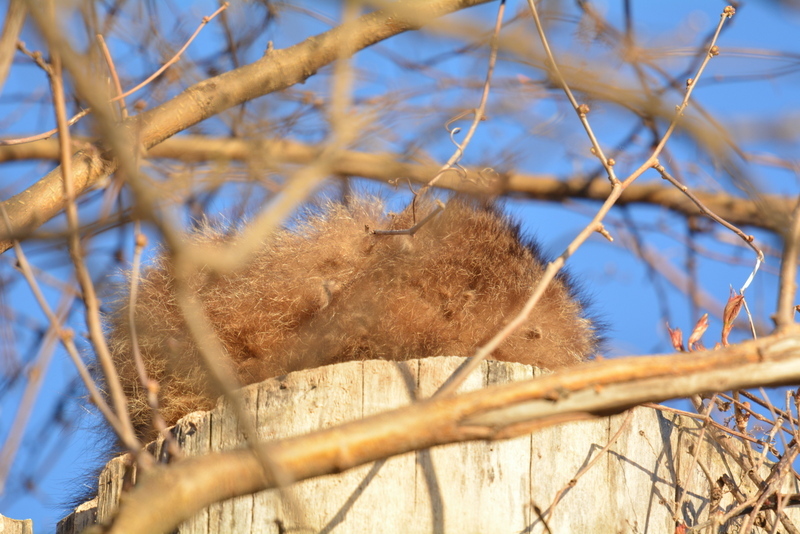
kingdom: Animalia
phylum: Chordata
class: Mammalia
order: Carnivora
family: Procyonidae
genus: Procyon
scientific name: Procyon lotor
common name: Raccoon
